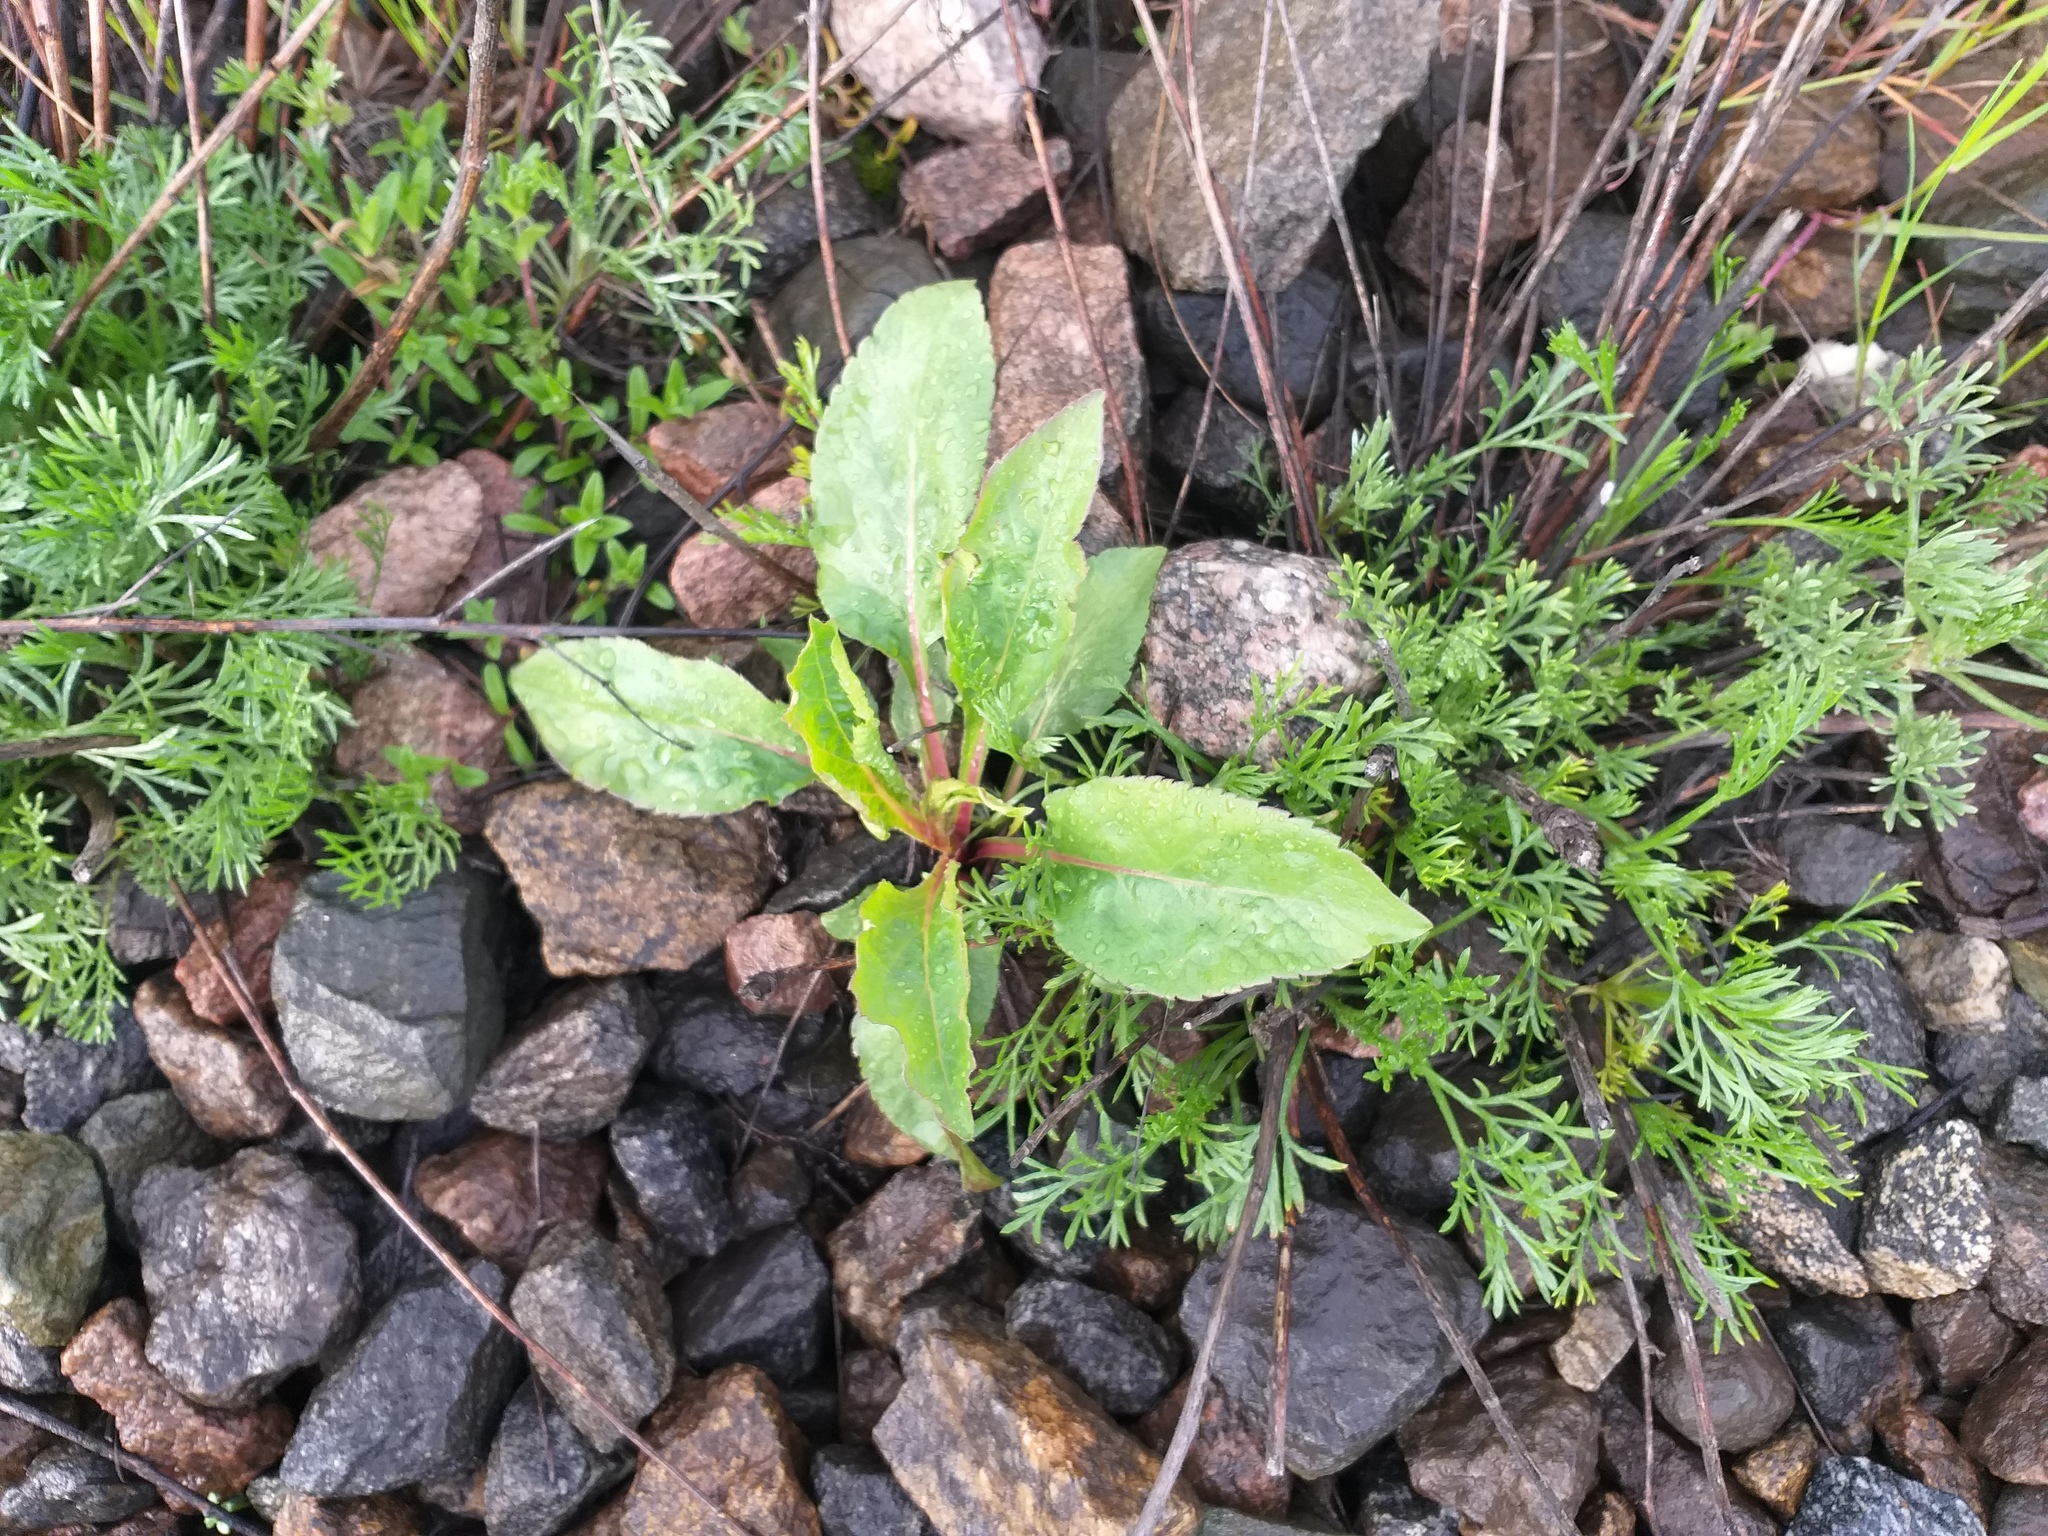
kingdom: Plantae
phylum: Tracheophyta
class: Magnoliopsida
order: Asterales
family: Asteraceae
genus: Solidago
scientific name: Solidago virgaurea
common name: Goldenrod
